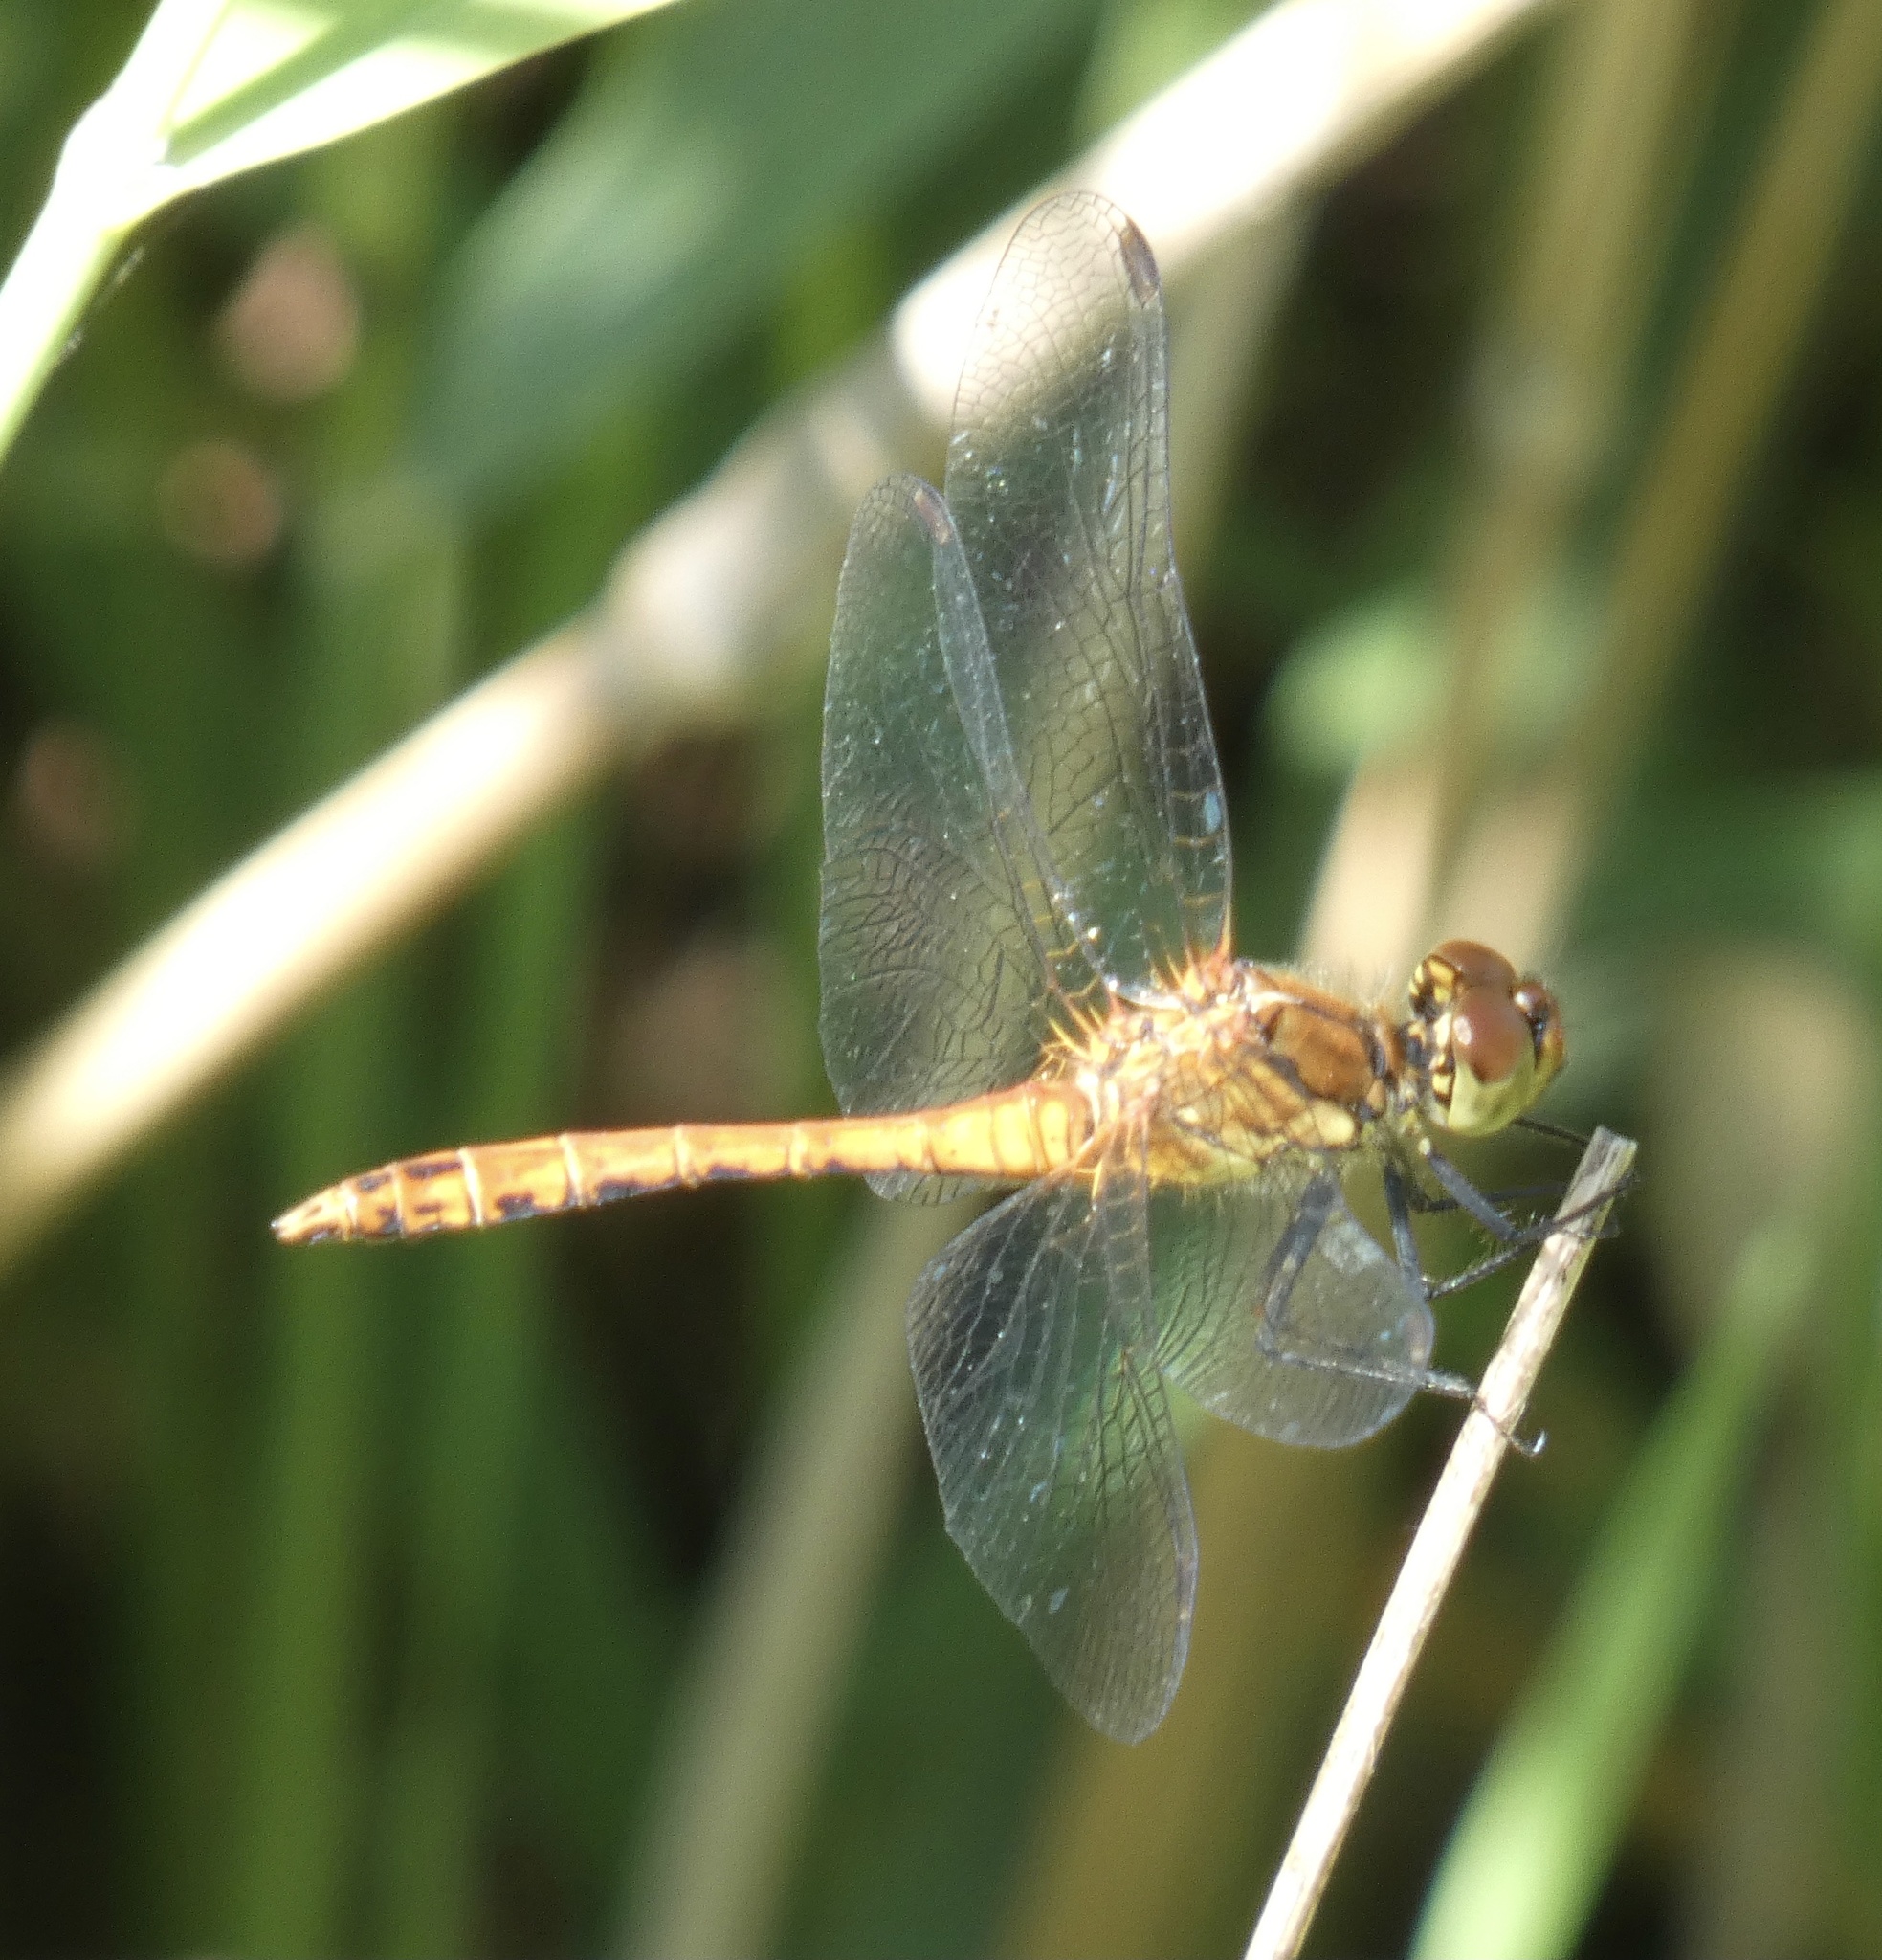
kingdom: Animalia
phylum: Arthropoda
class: Insecta
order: Odonata
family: Libellulidae
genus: Sympetrum
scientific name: Sympetrum sanguineum
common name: Ruddy darter
